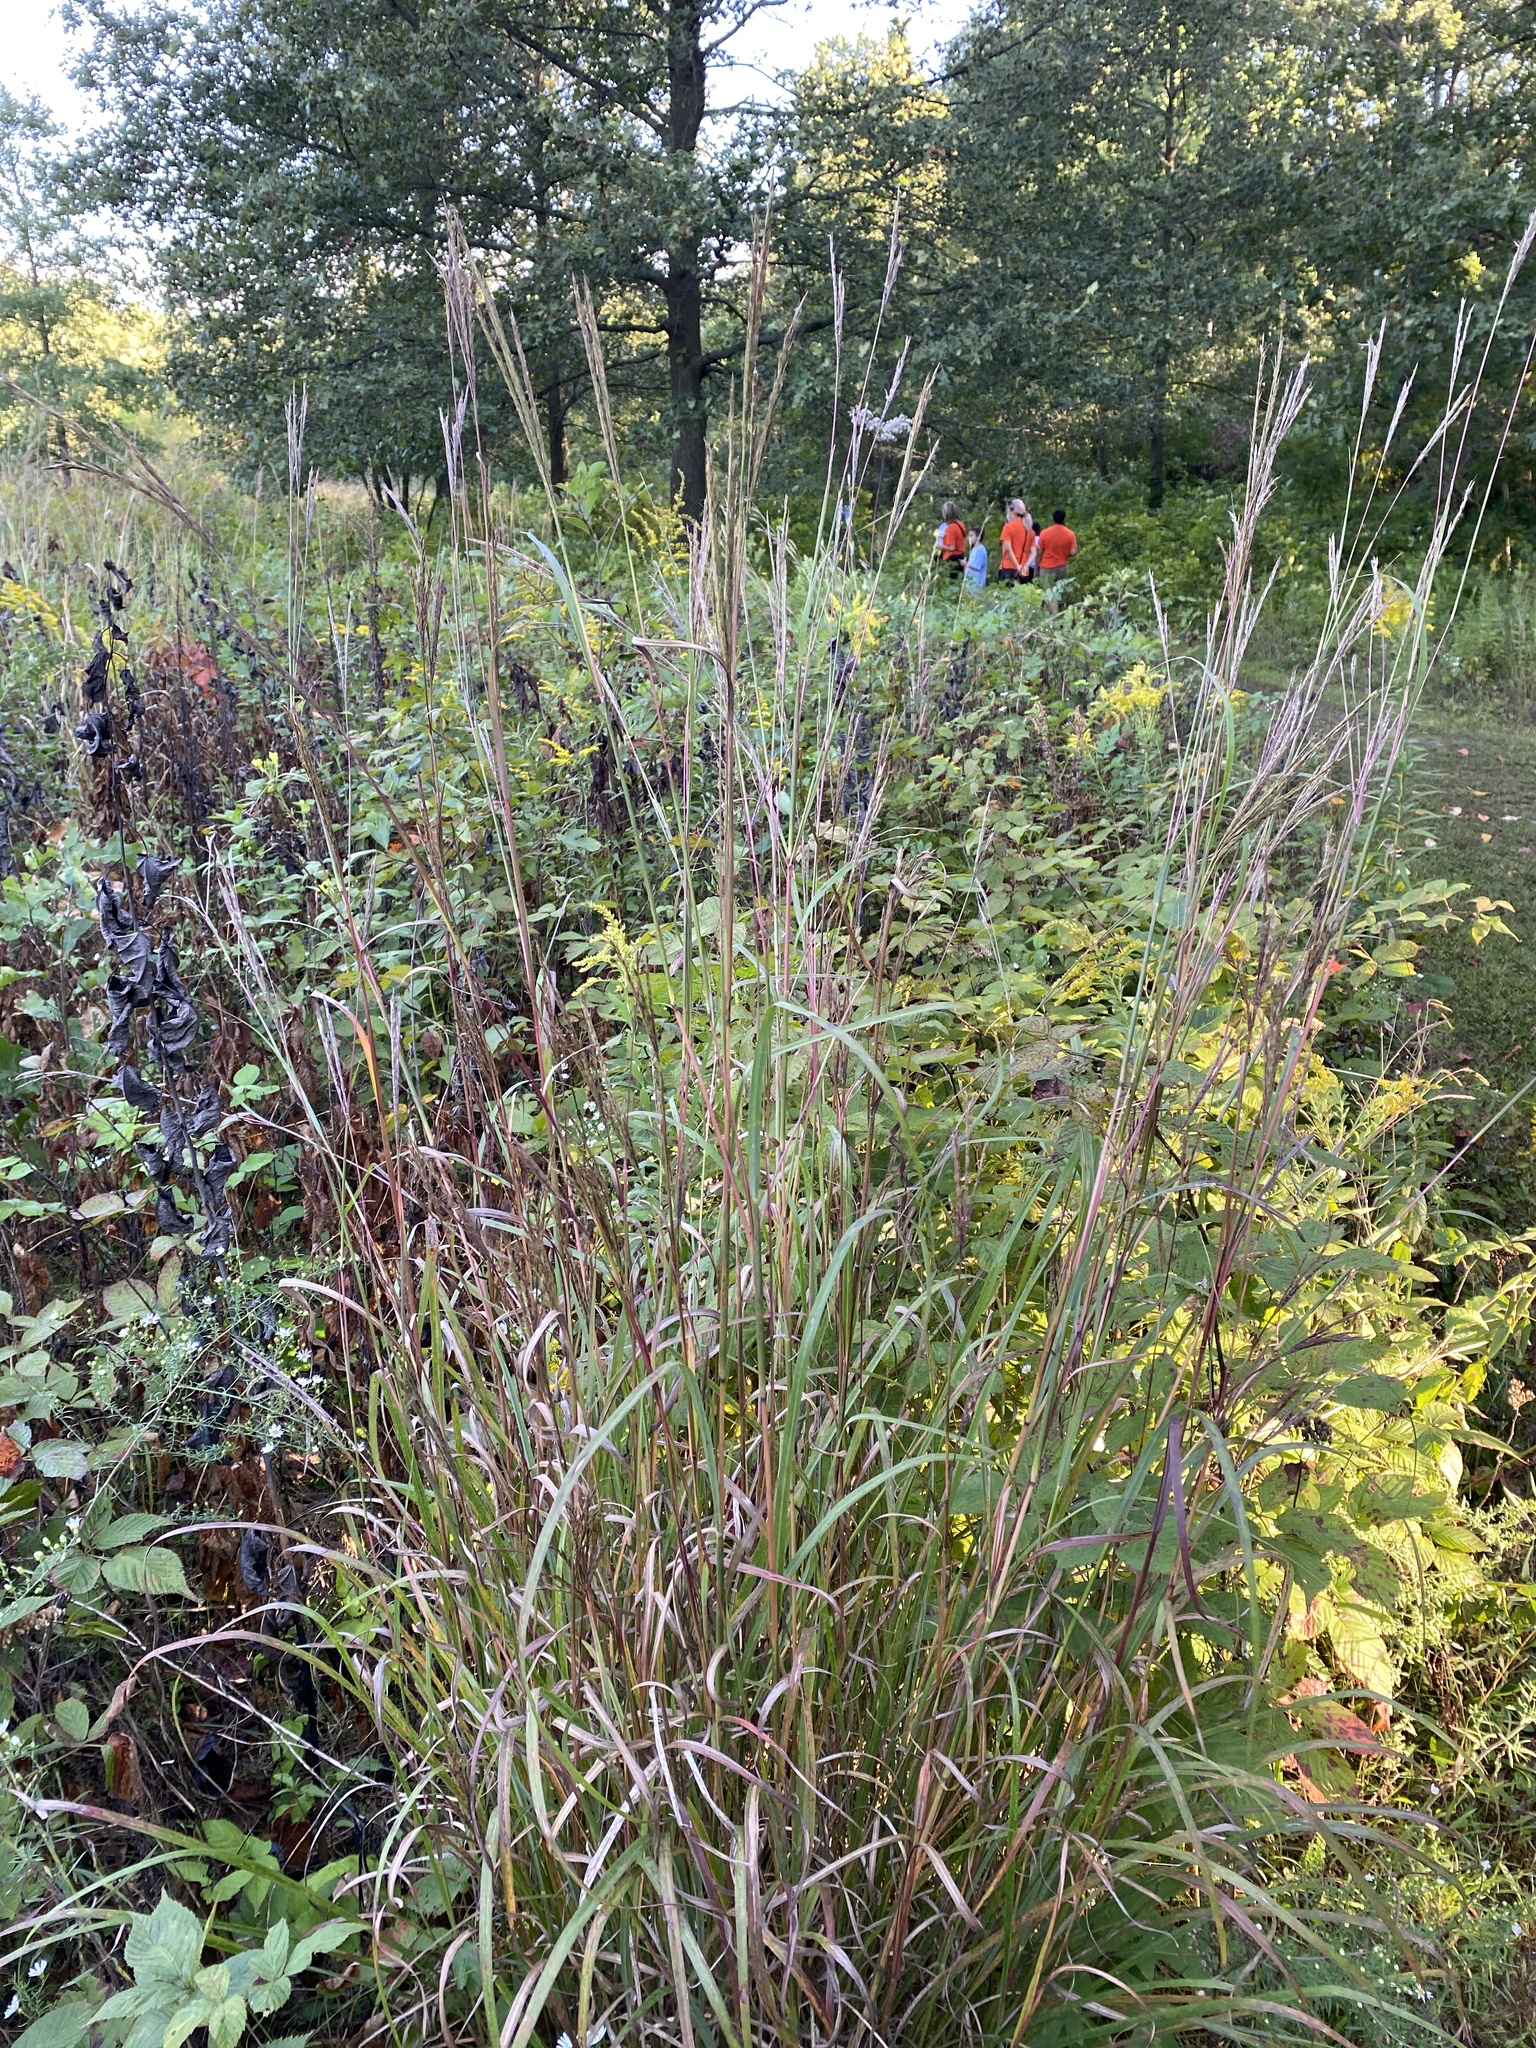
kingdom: Plantae
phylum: Tracheophyta
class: Liliopsida
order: Poales
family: Poaceae
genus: Andropogon
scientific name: Andropogon gerardi
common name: Big bluestem
